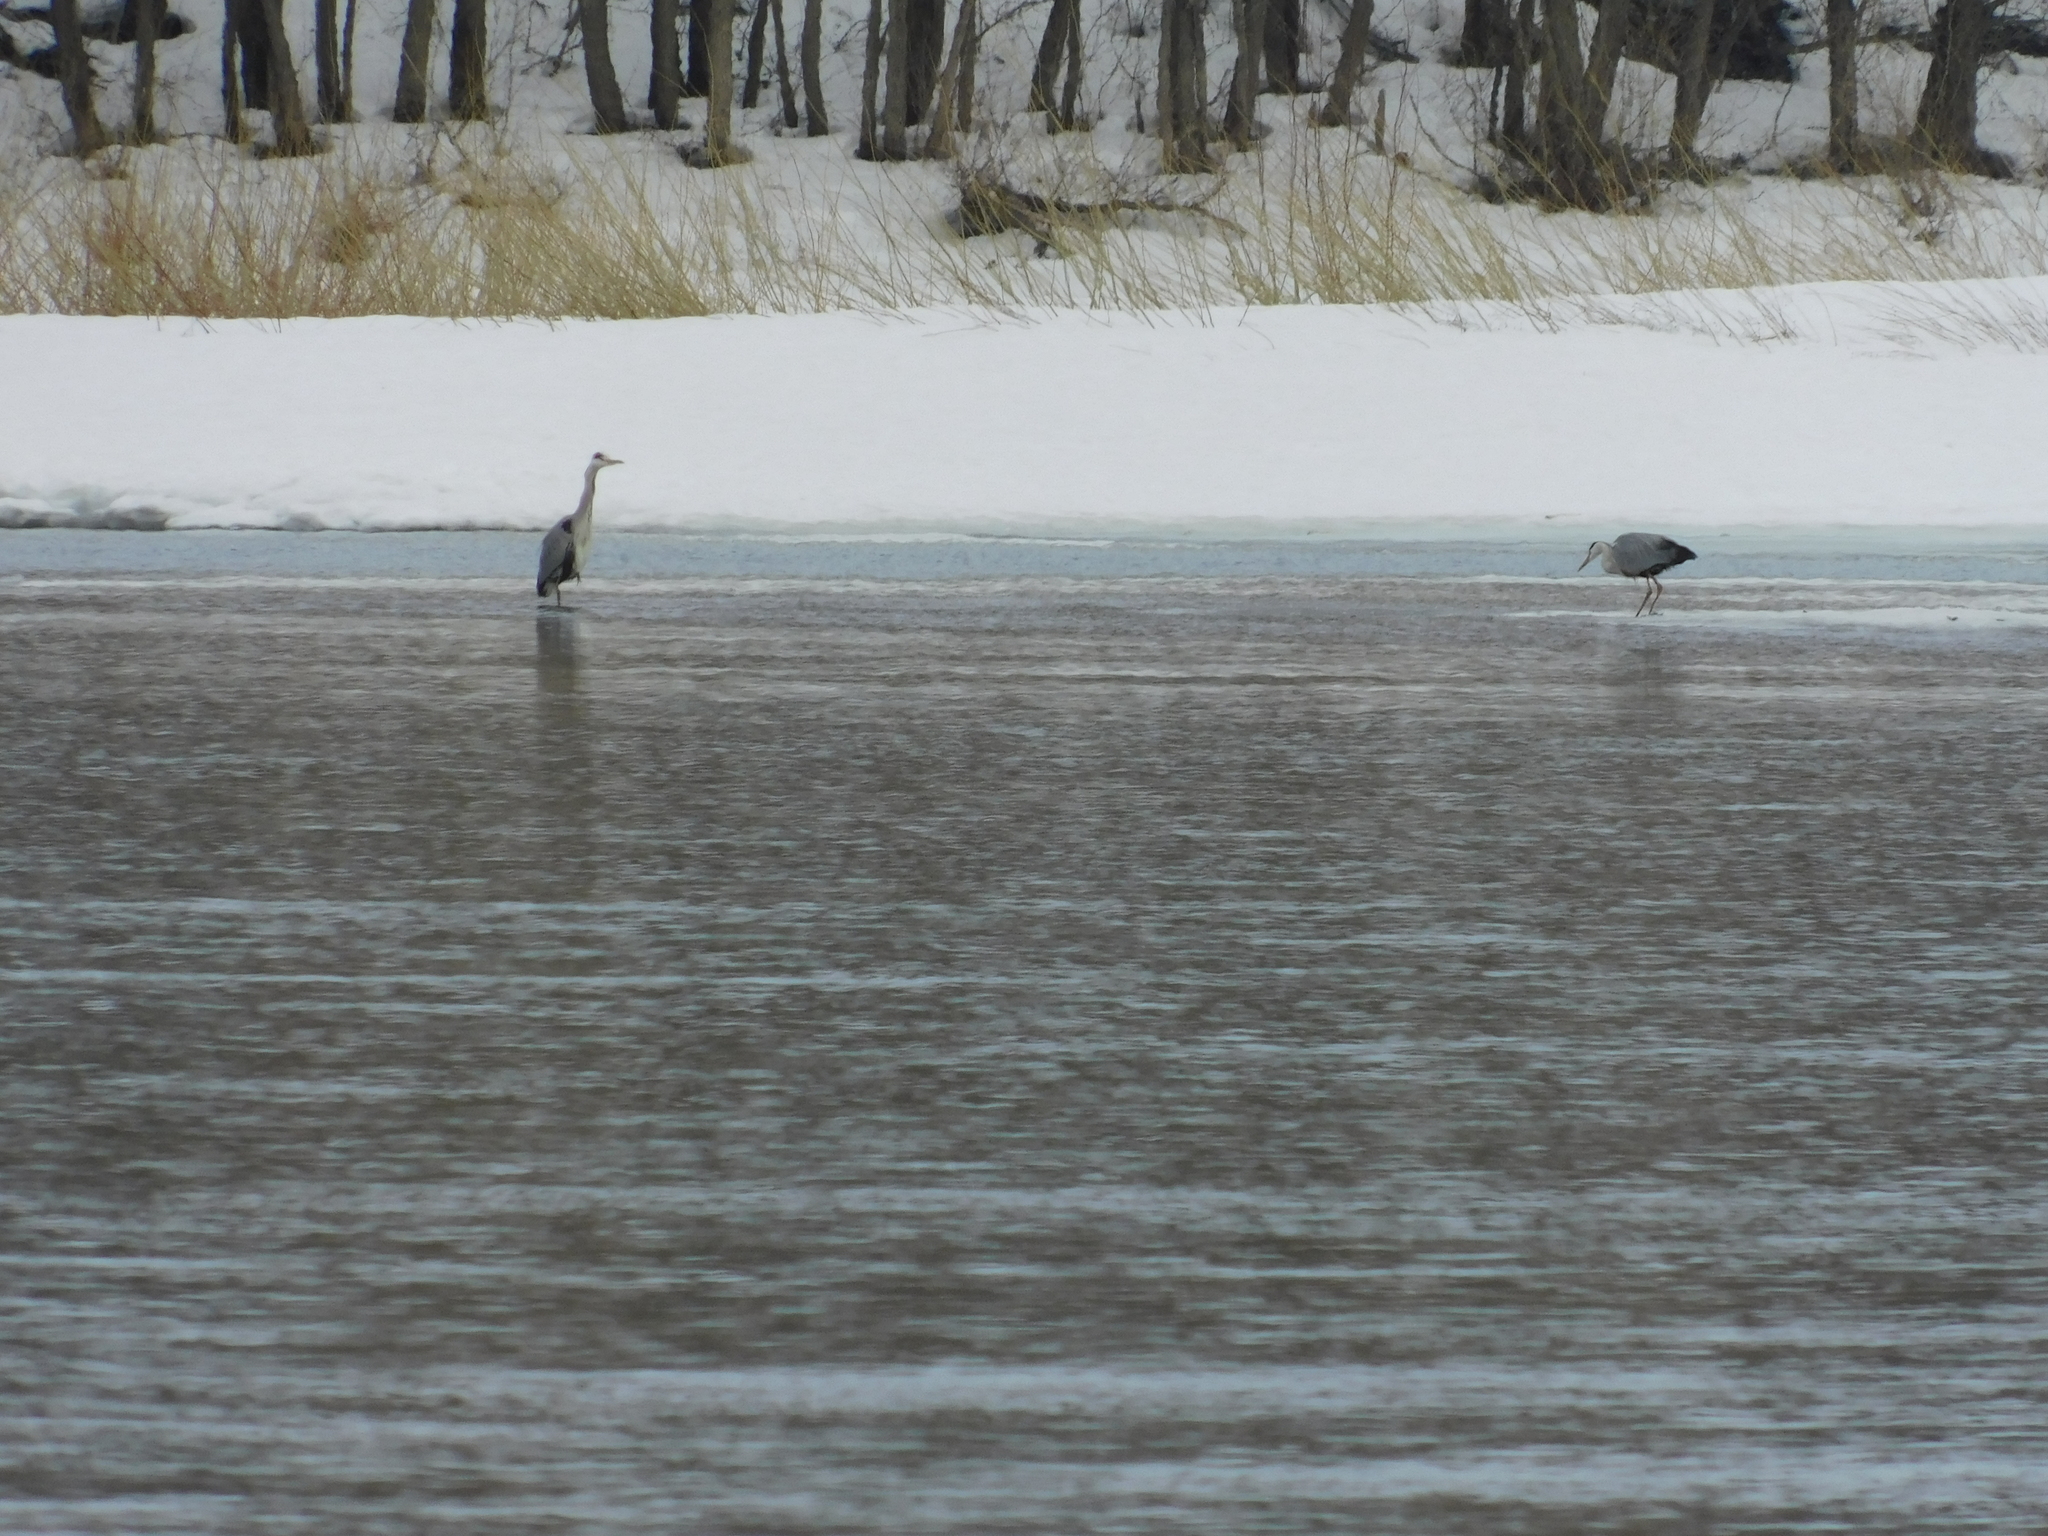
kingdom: Animalia
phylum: Chordata
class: Aves
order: Pelecaniformes
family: Ardeidae
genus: Ardea
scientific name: Ardea cinerea
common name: Grey heron
